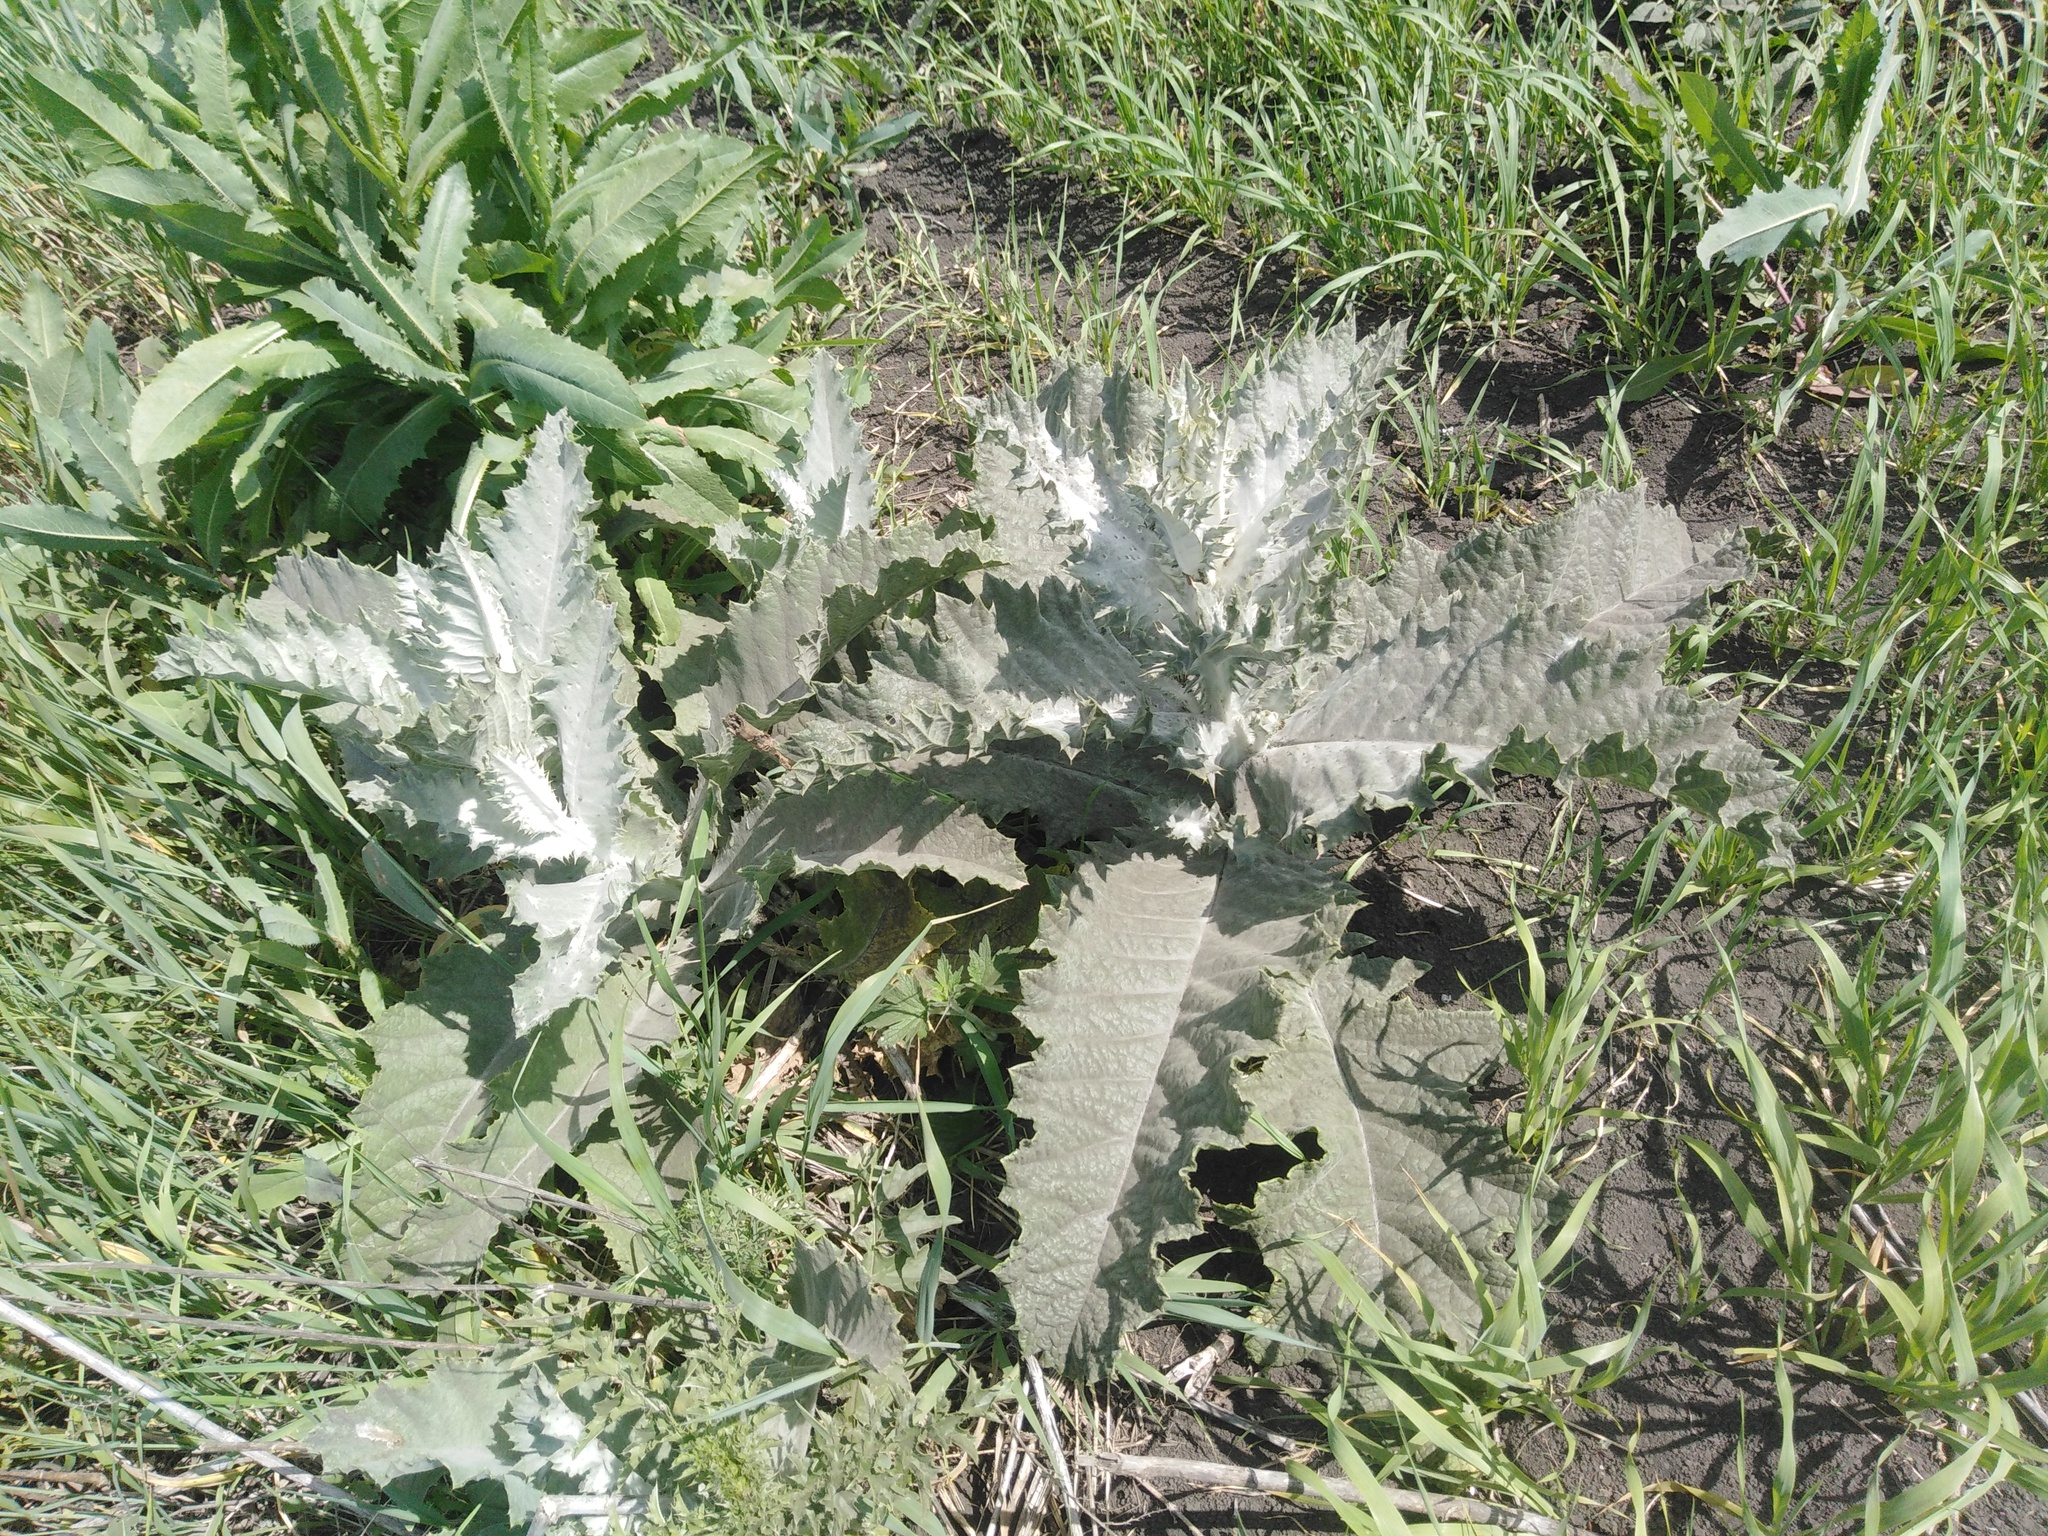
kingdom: Plantae
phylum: Tracheophyta
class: Magnoliopsida
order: Asterales
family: Asteraceae
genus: Onopordum
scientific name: Onopordum acanthium
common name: Scotch thistle
